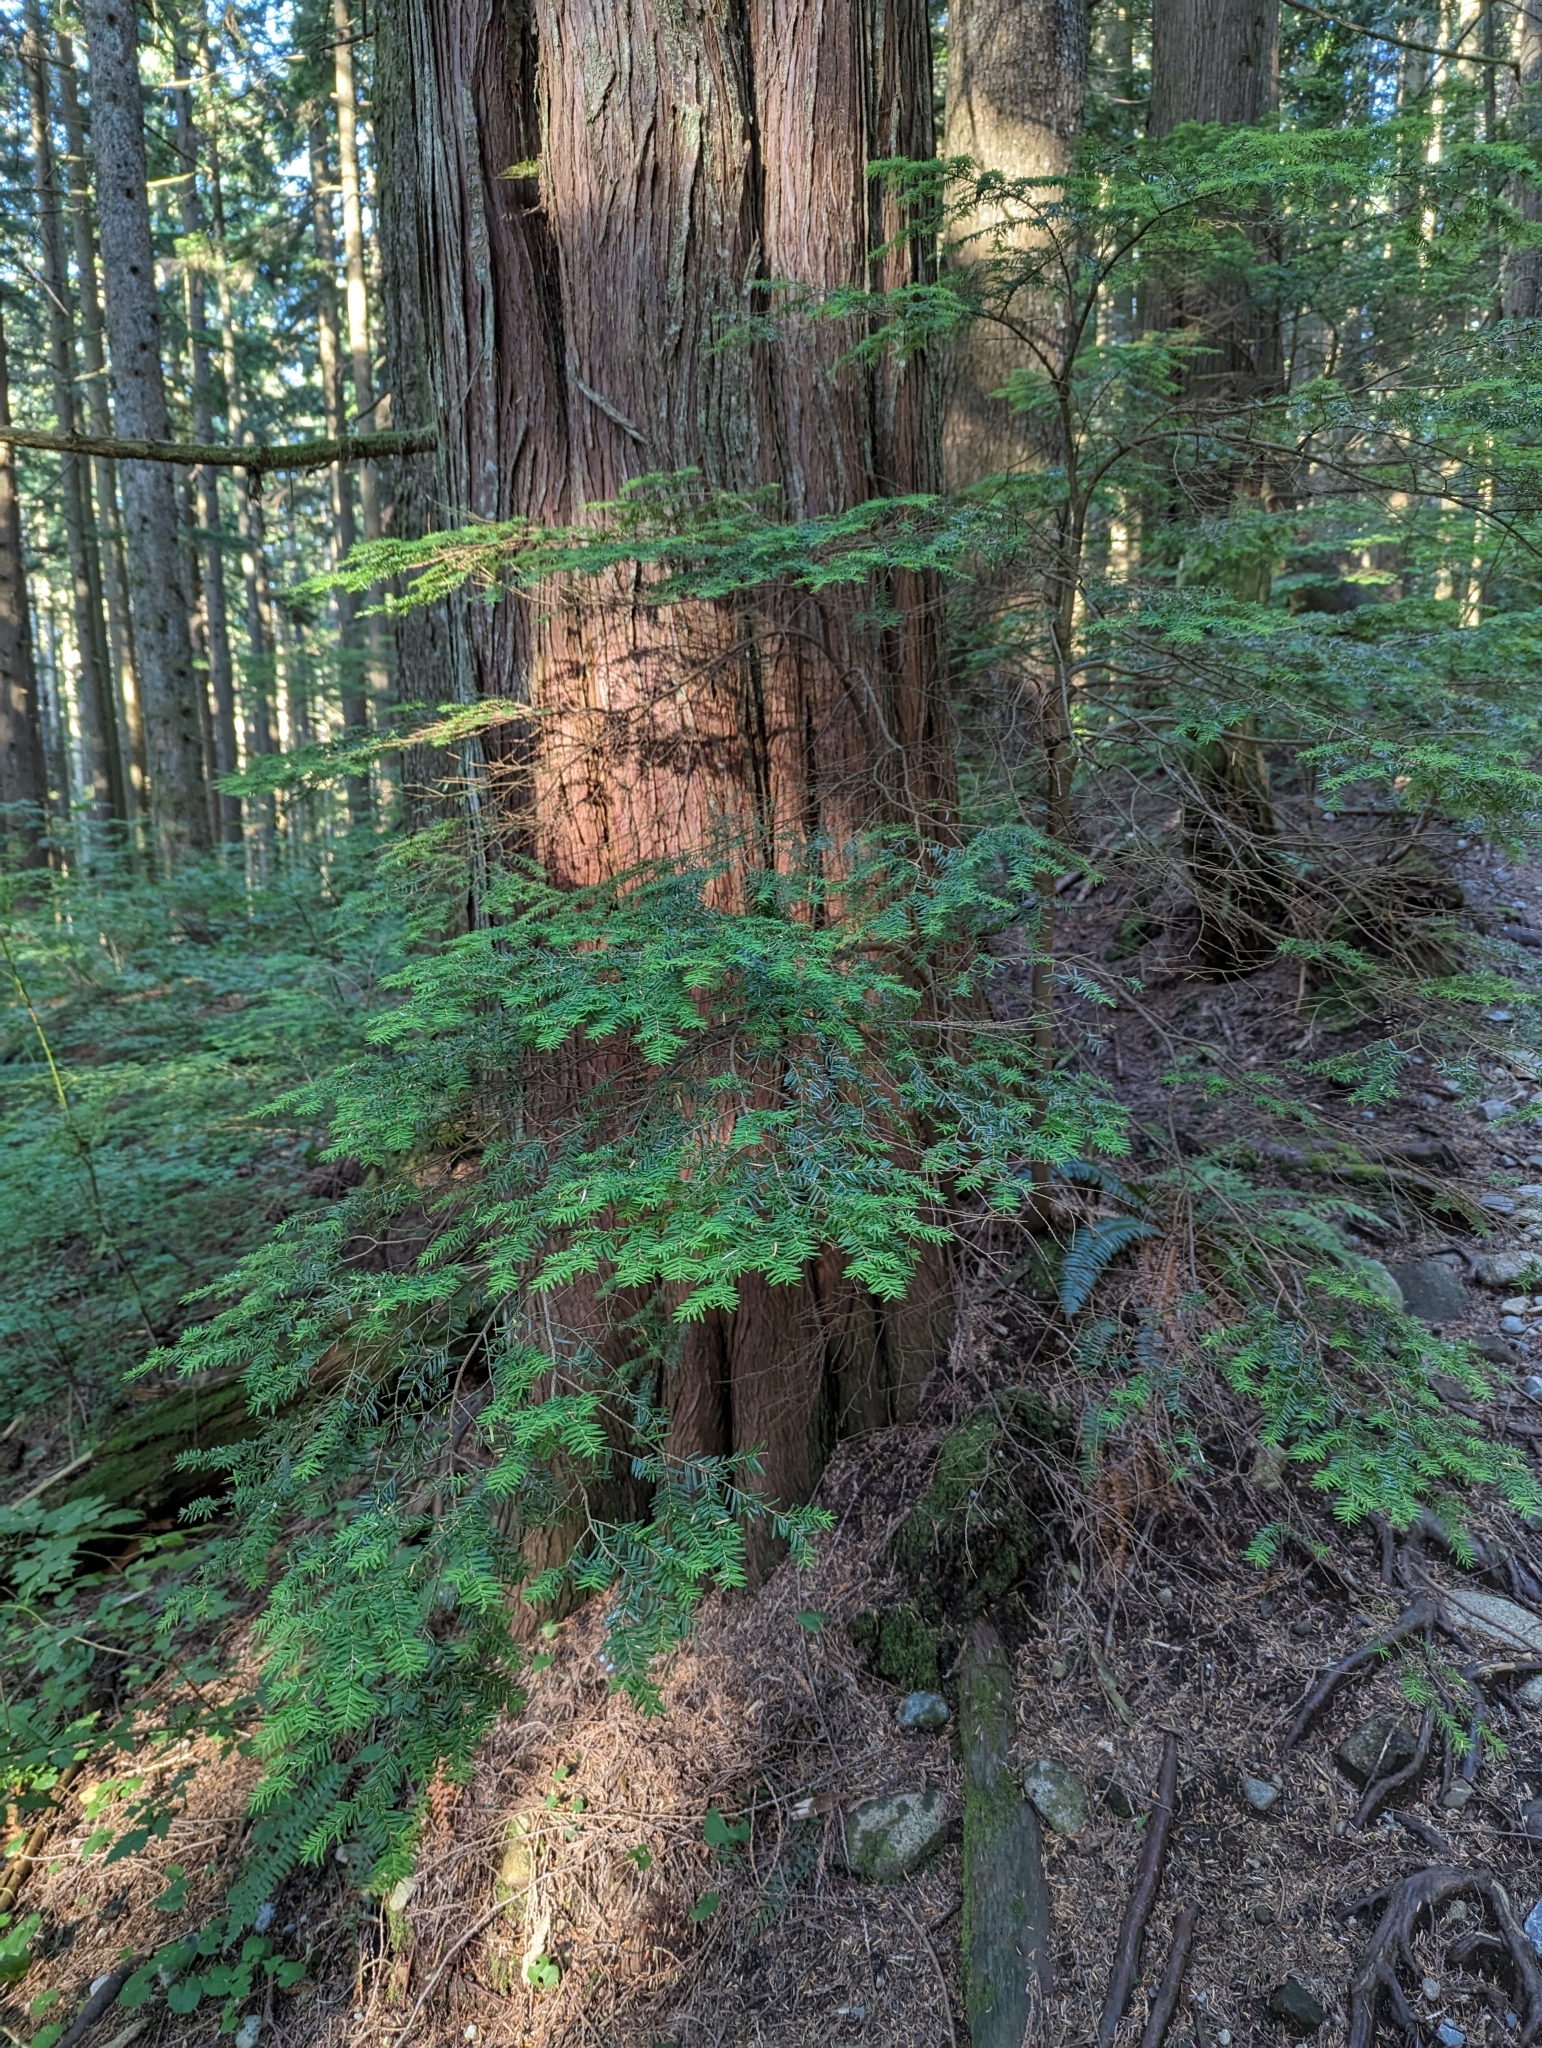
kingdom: Plantae
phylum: Tracheophyta
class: Pinopsida
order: Pinales
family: Pinaceae
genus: Tsuga
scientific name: Tsuga heterophylla
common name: Western hemlock
